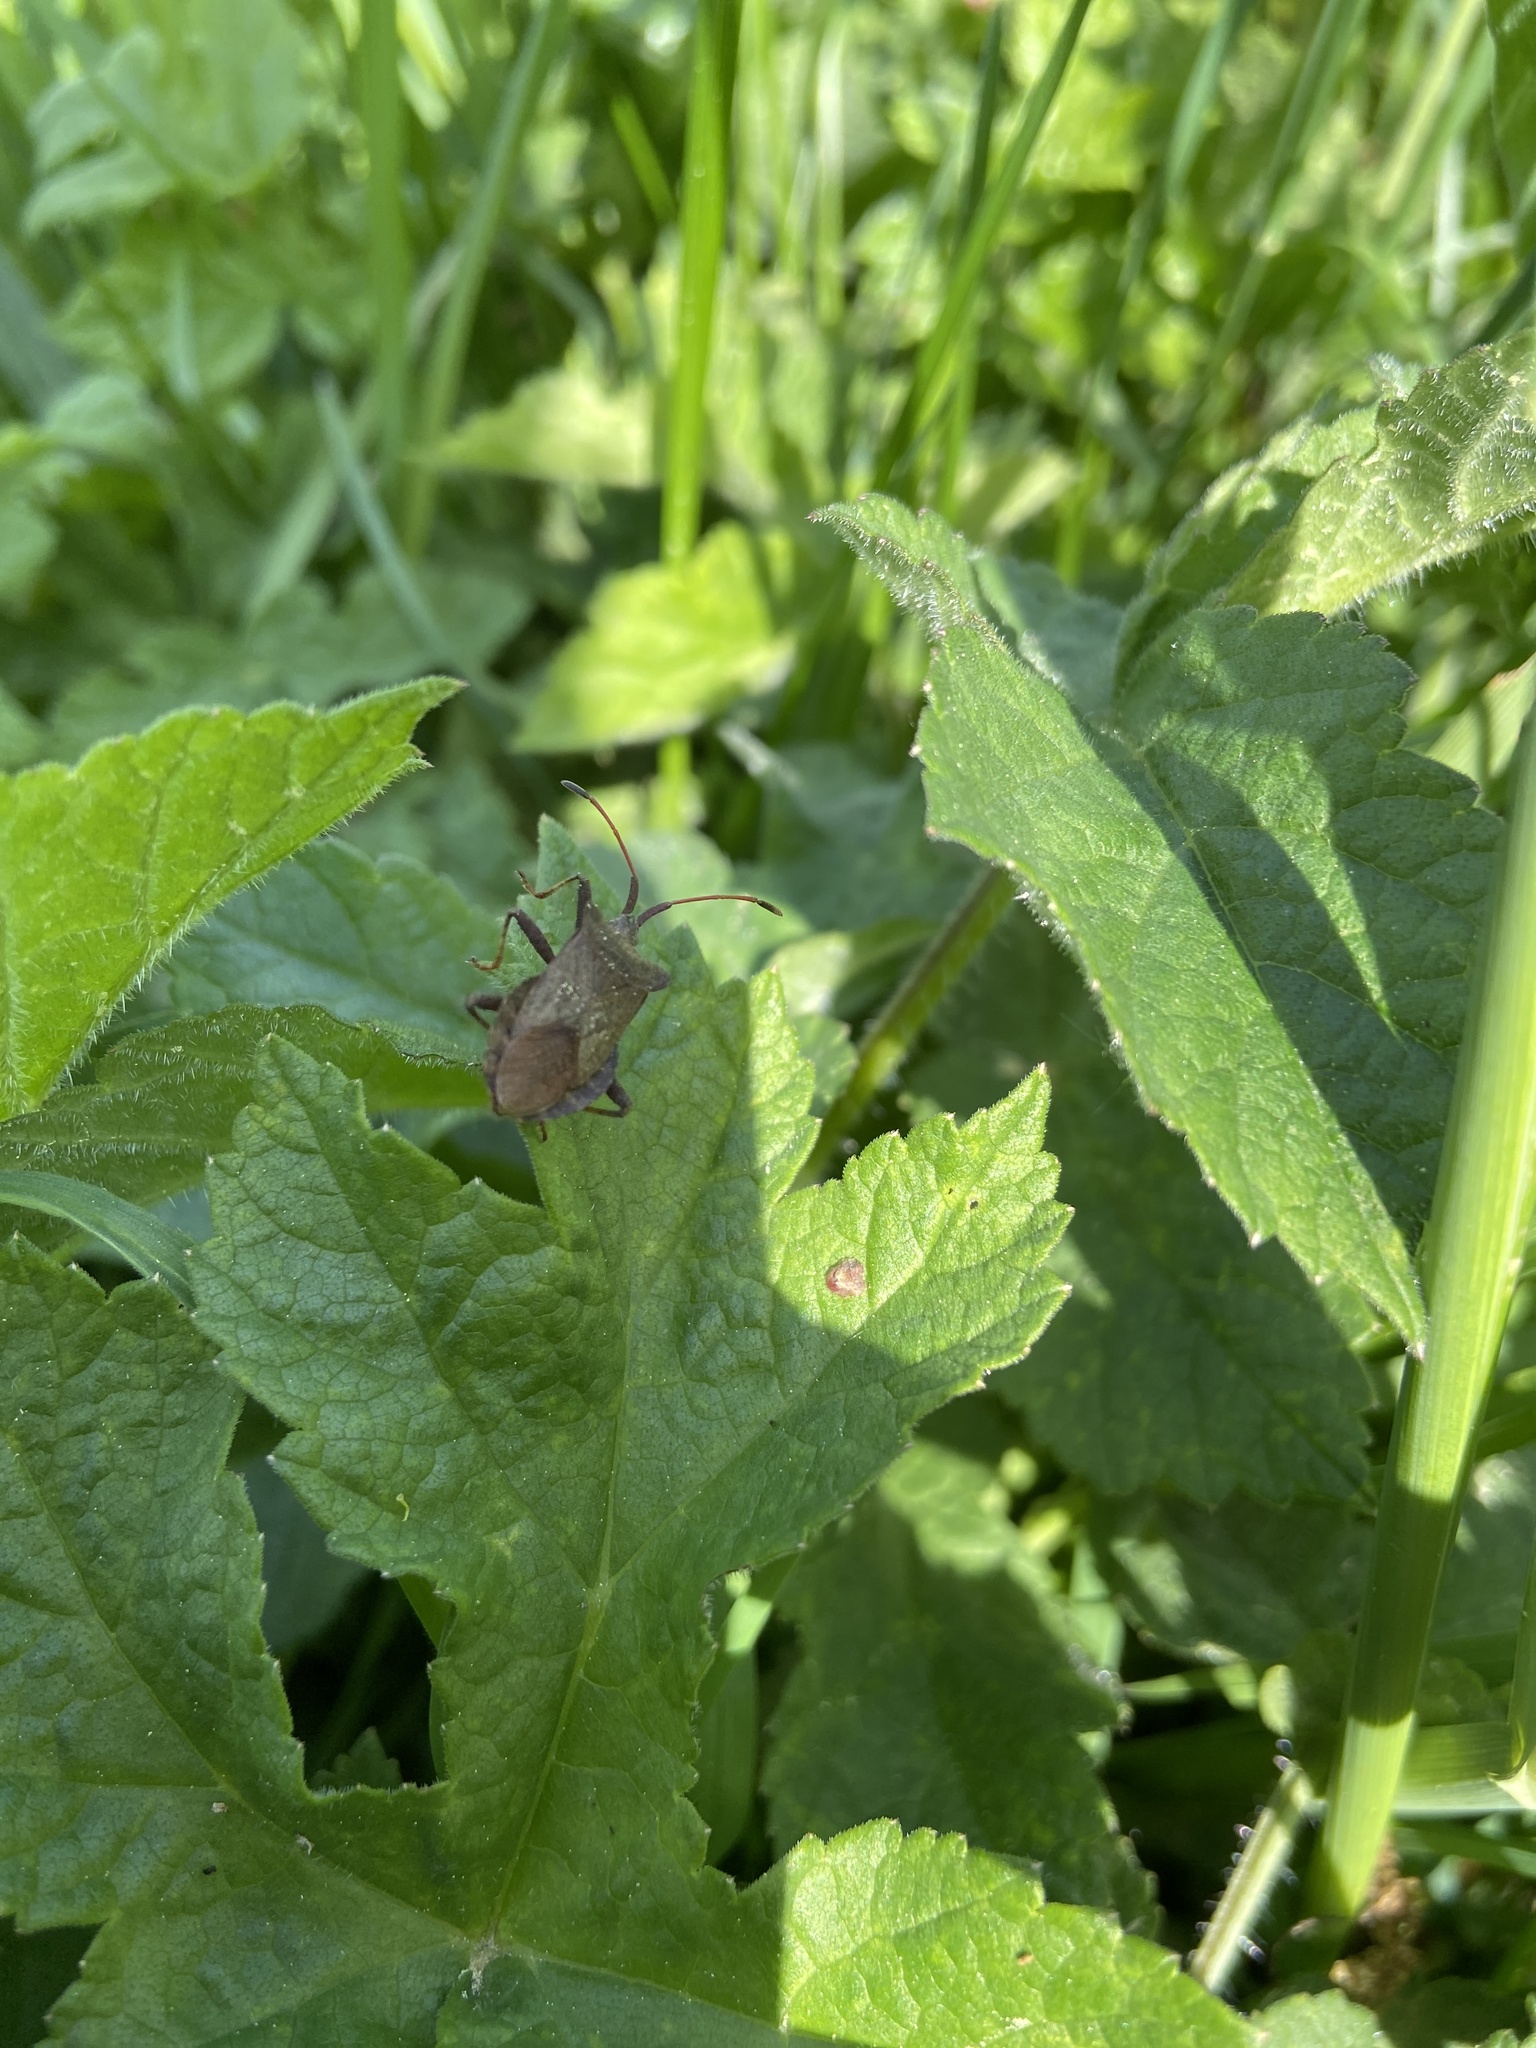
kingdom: Animalia
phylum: Arthropoda
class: Insecta
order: Hemiptera
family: Coreidae
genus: Coreus
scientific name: Coreus marginatus
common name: Dock bug
